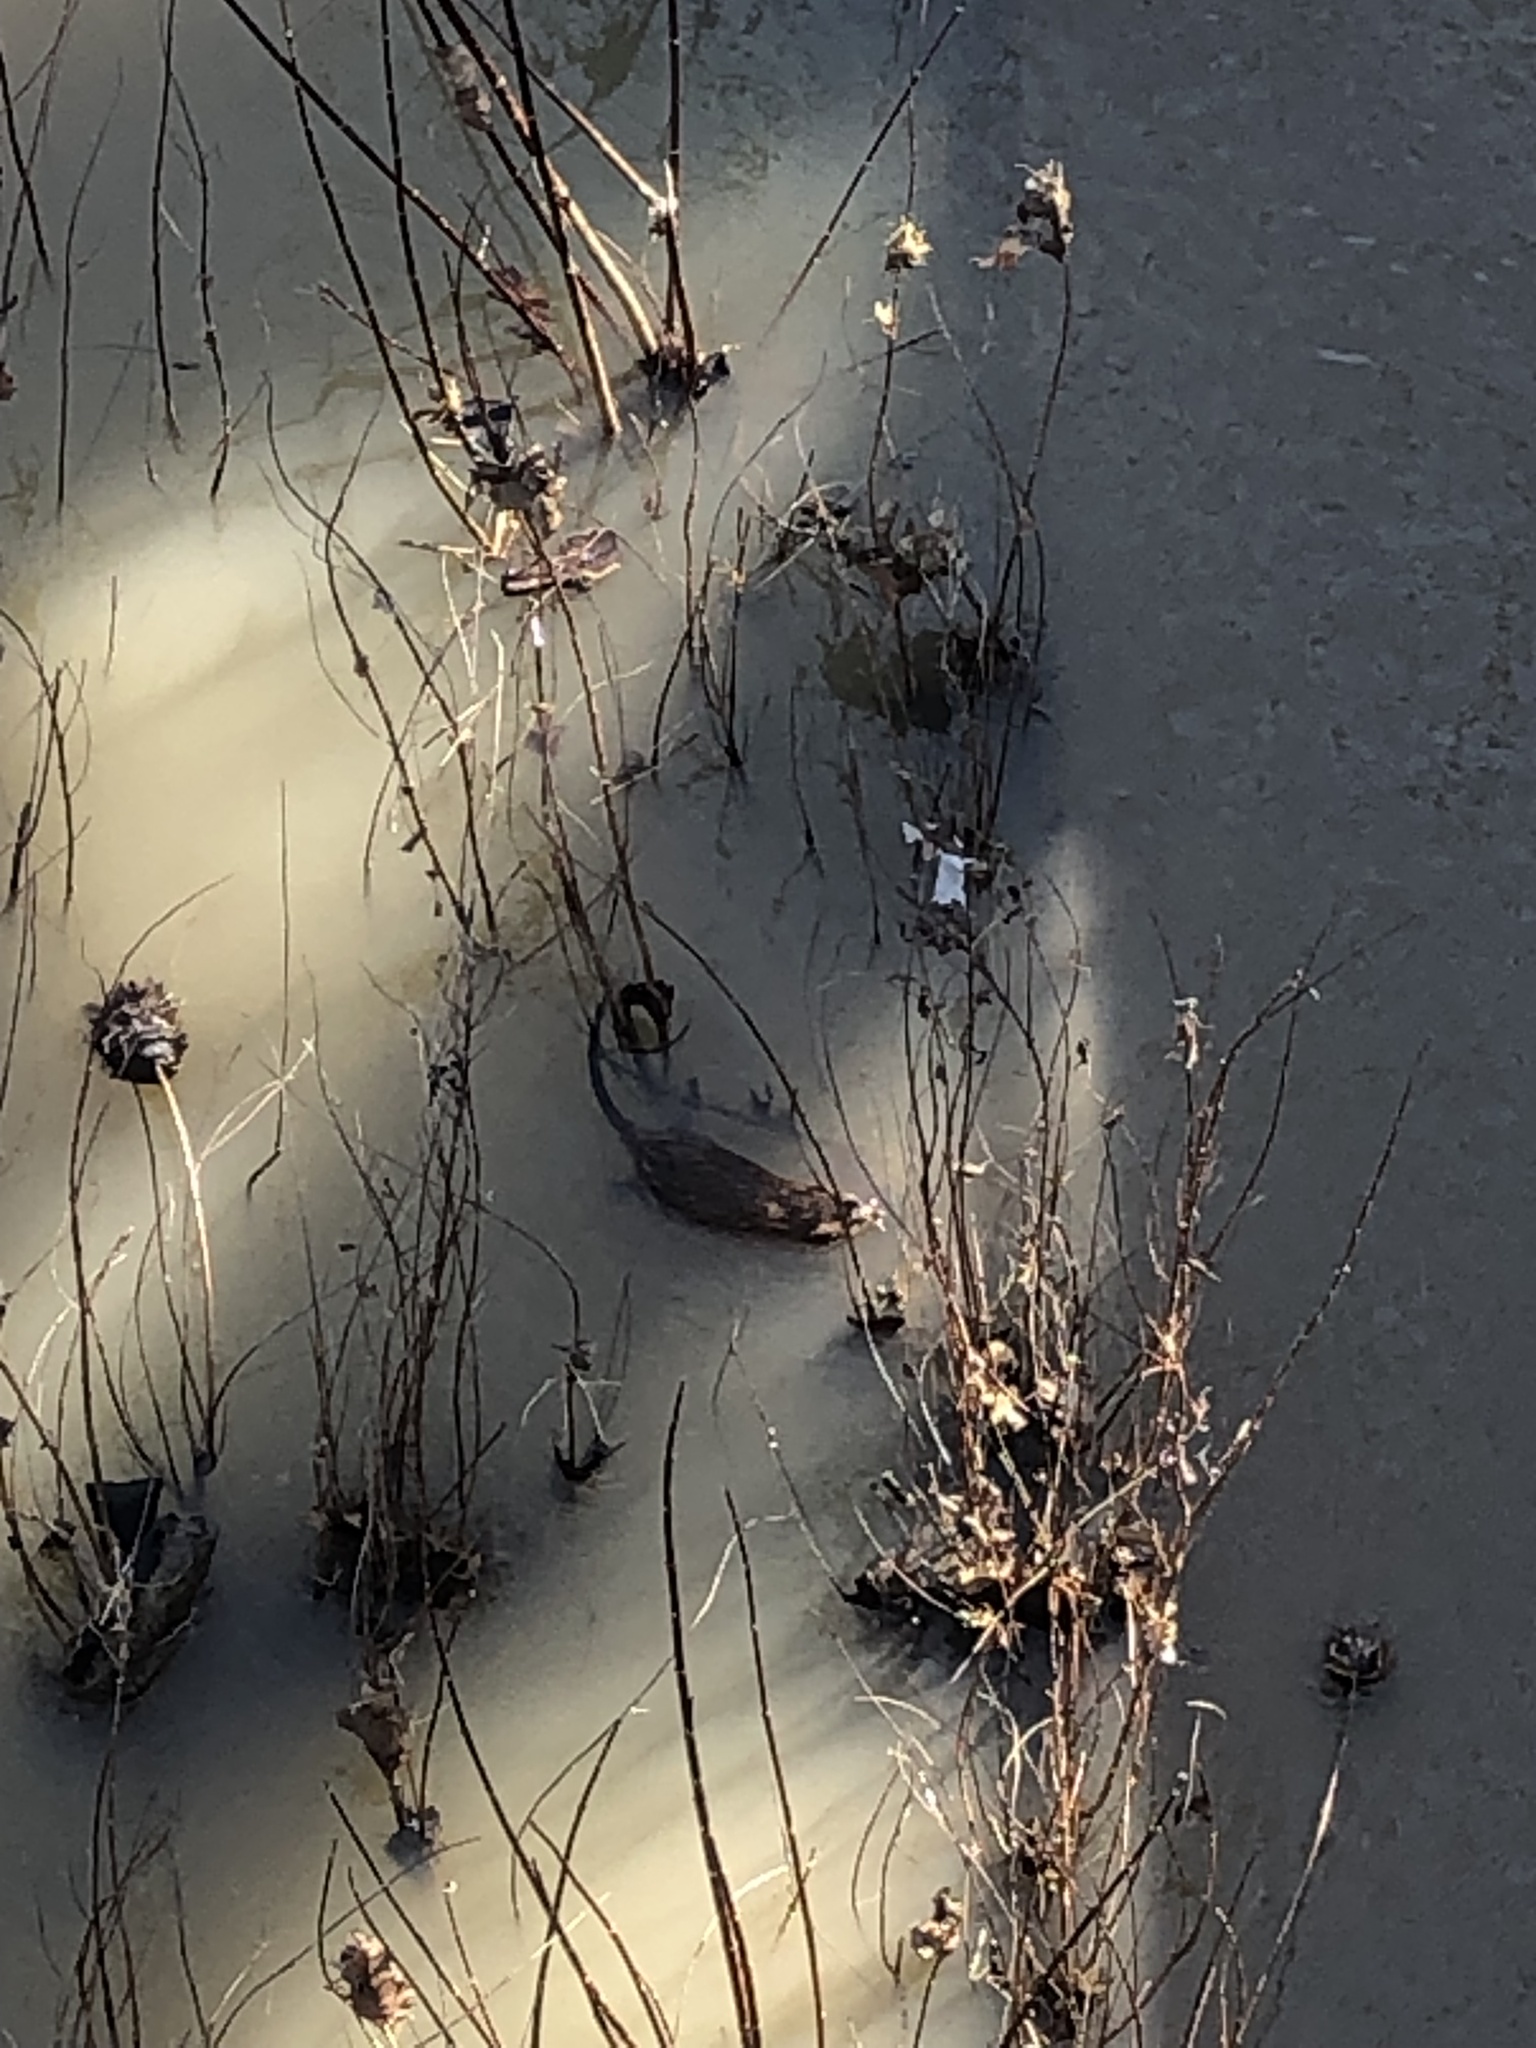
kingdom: Animalia
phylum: Chordata
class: Mammalia
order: Rodentia
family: Cricetidae
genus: Ondatra
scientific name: Ondatra zibethicus
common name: Muskrat
